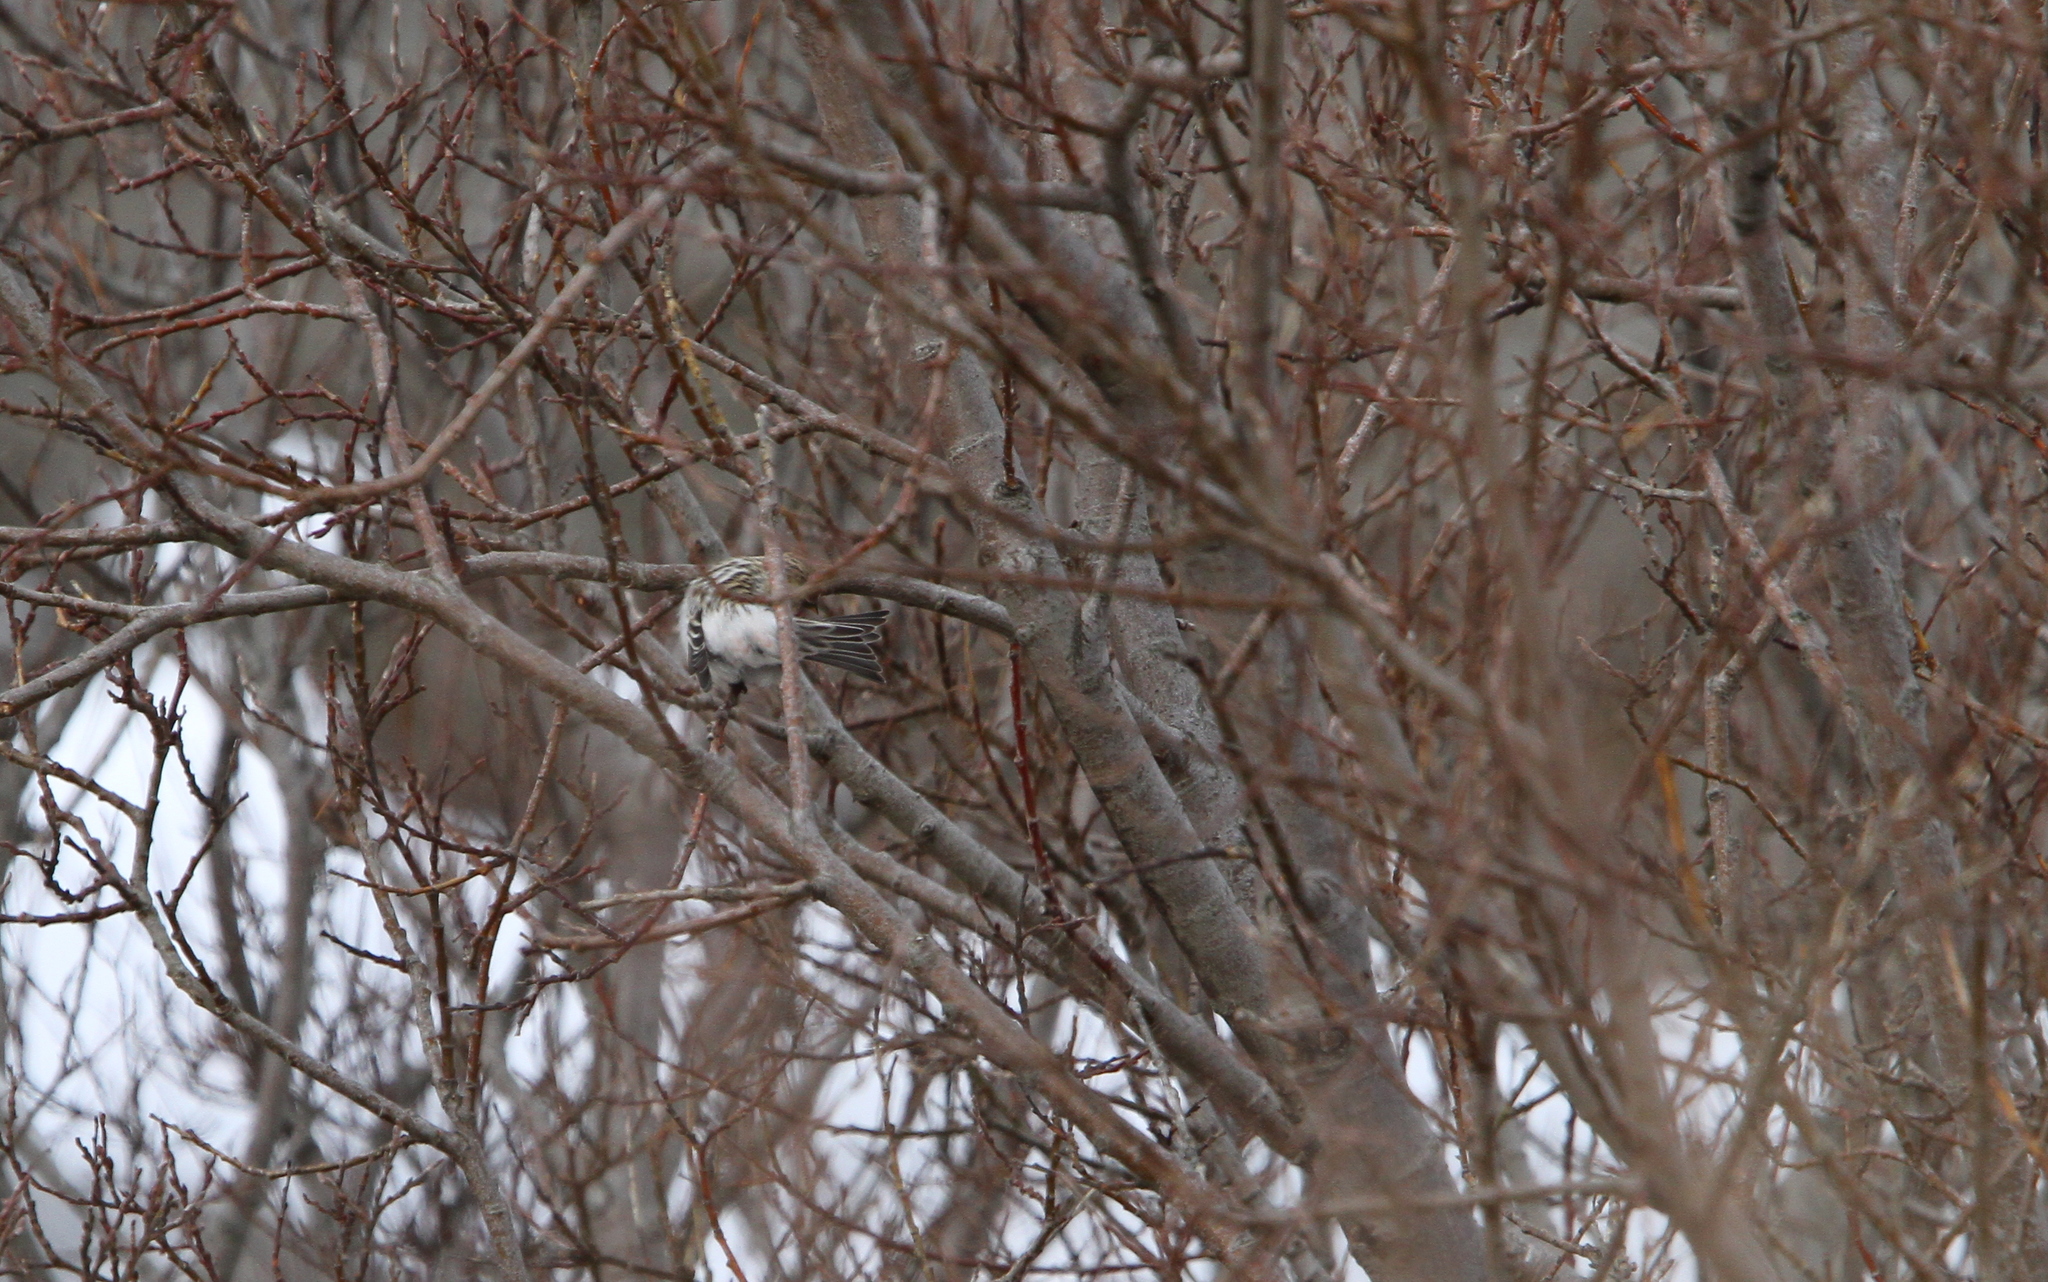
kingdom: Animalia
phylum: Chordata
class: Aves
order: Passeriformes
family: Fringillidae
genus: Acanthis
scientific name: Acanthis hornemanni
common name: Arctic redpoll
